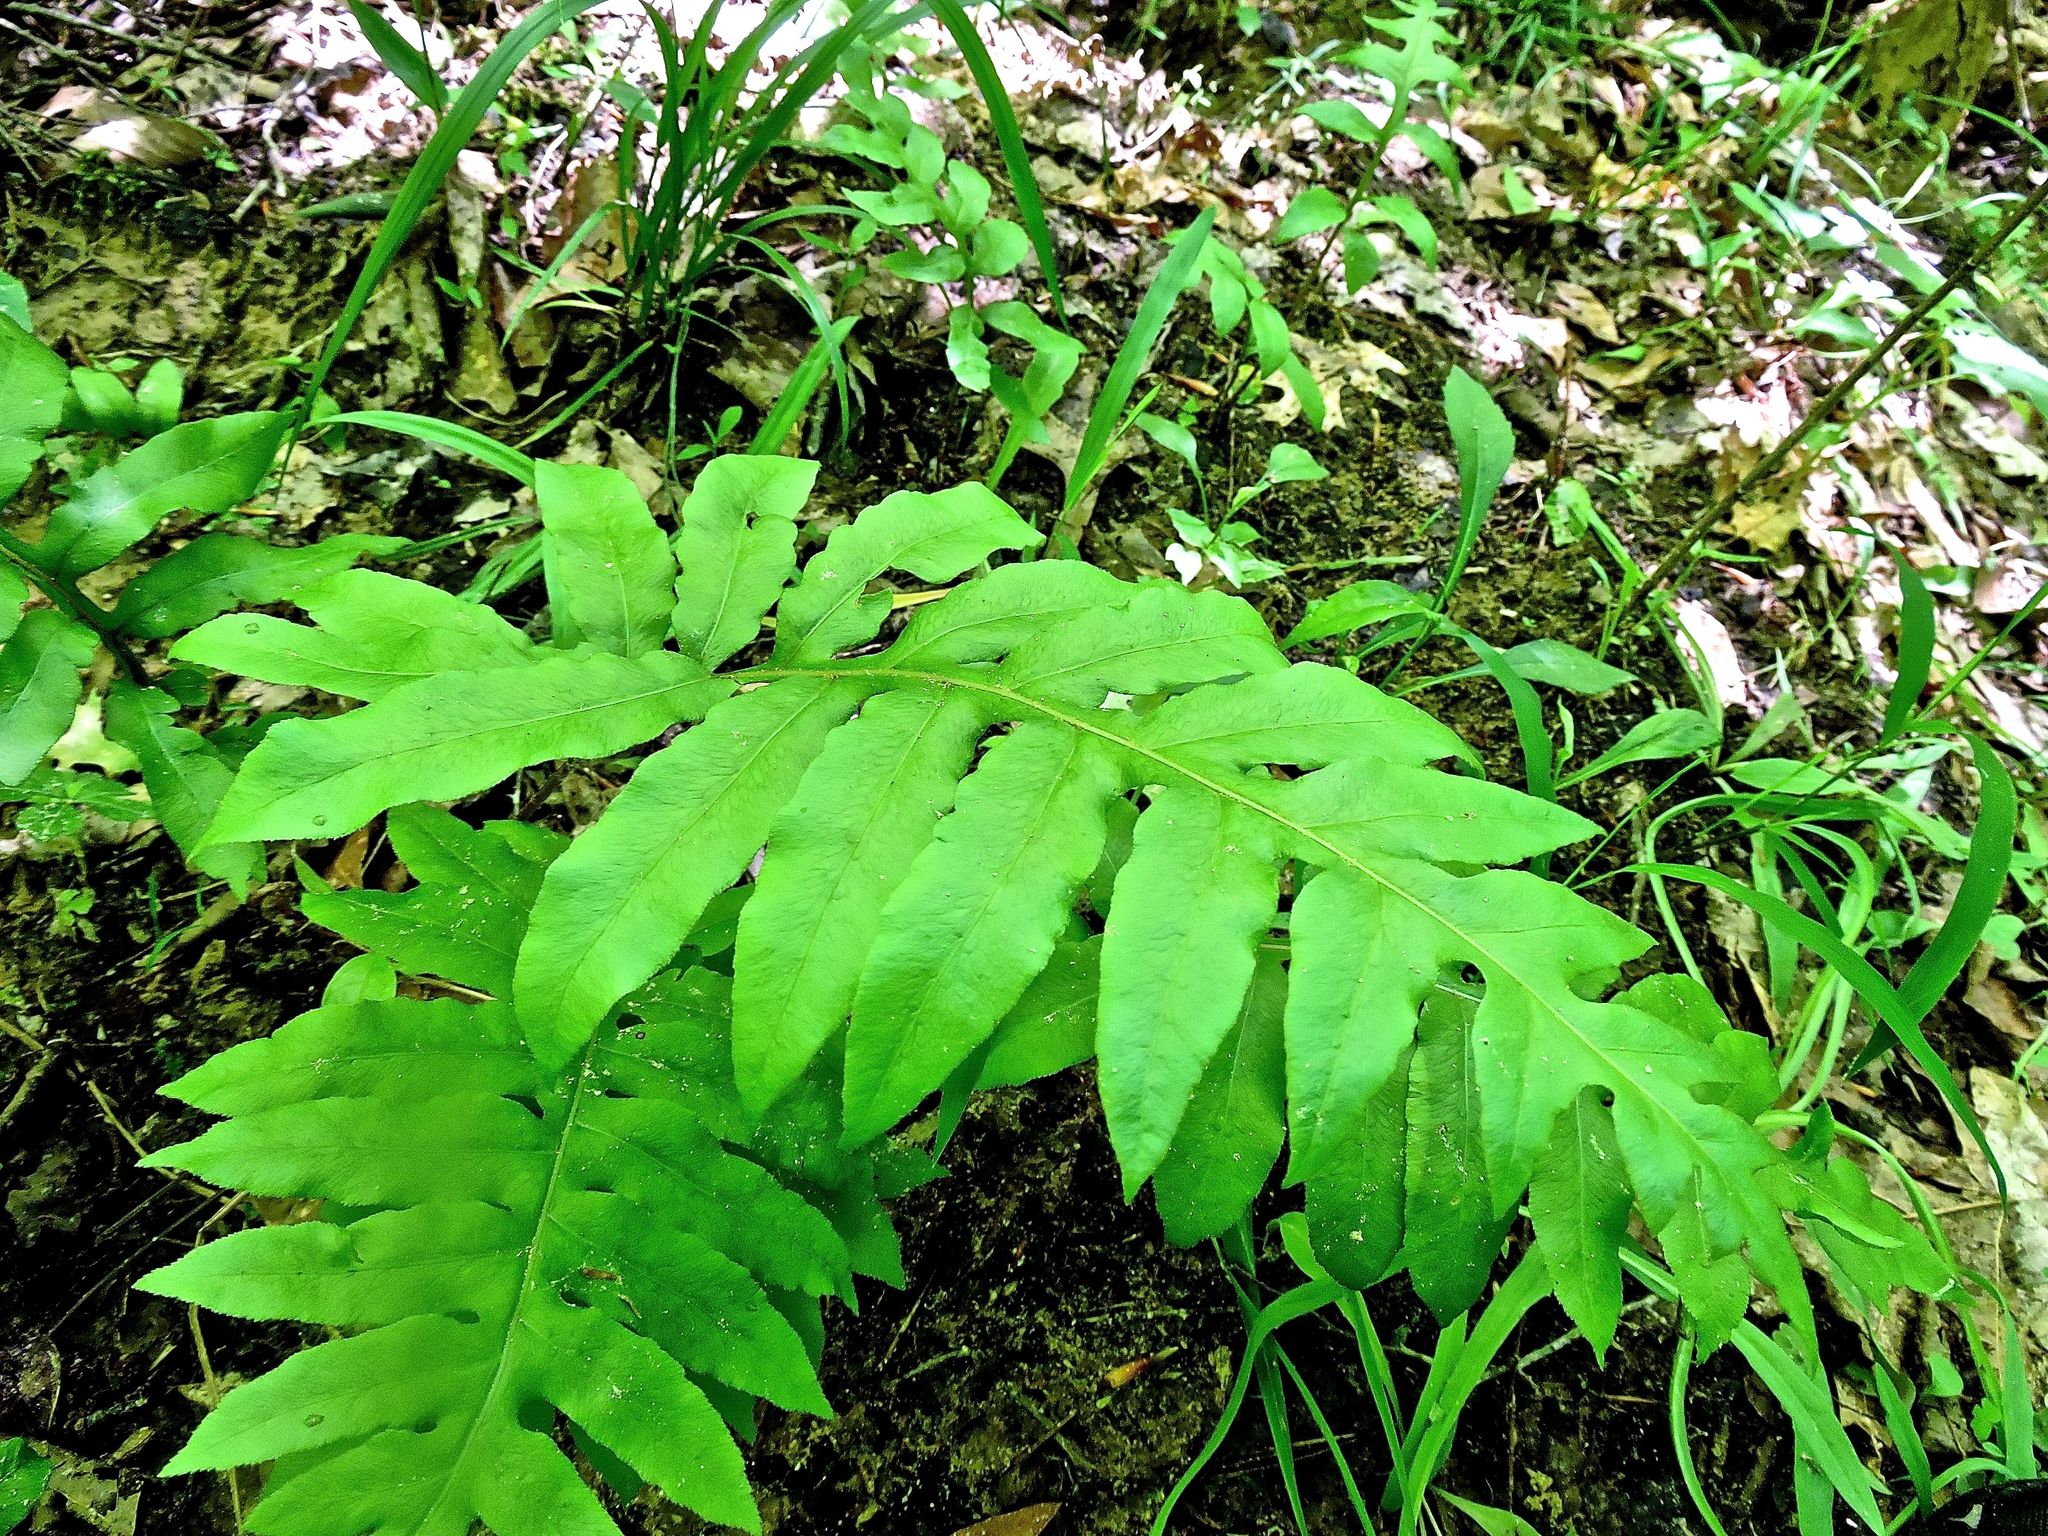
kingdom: Plantae
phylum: Tracheophyta
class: Polypodiopsida
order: Polypodiales
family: Blechnaceae
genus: Lorinseria
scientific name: Lorinseria areolata
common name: Dwarf chain fern
